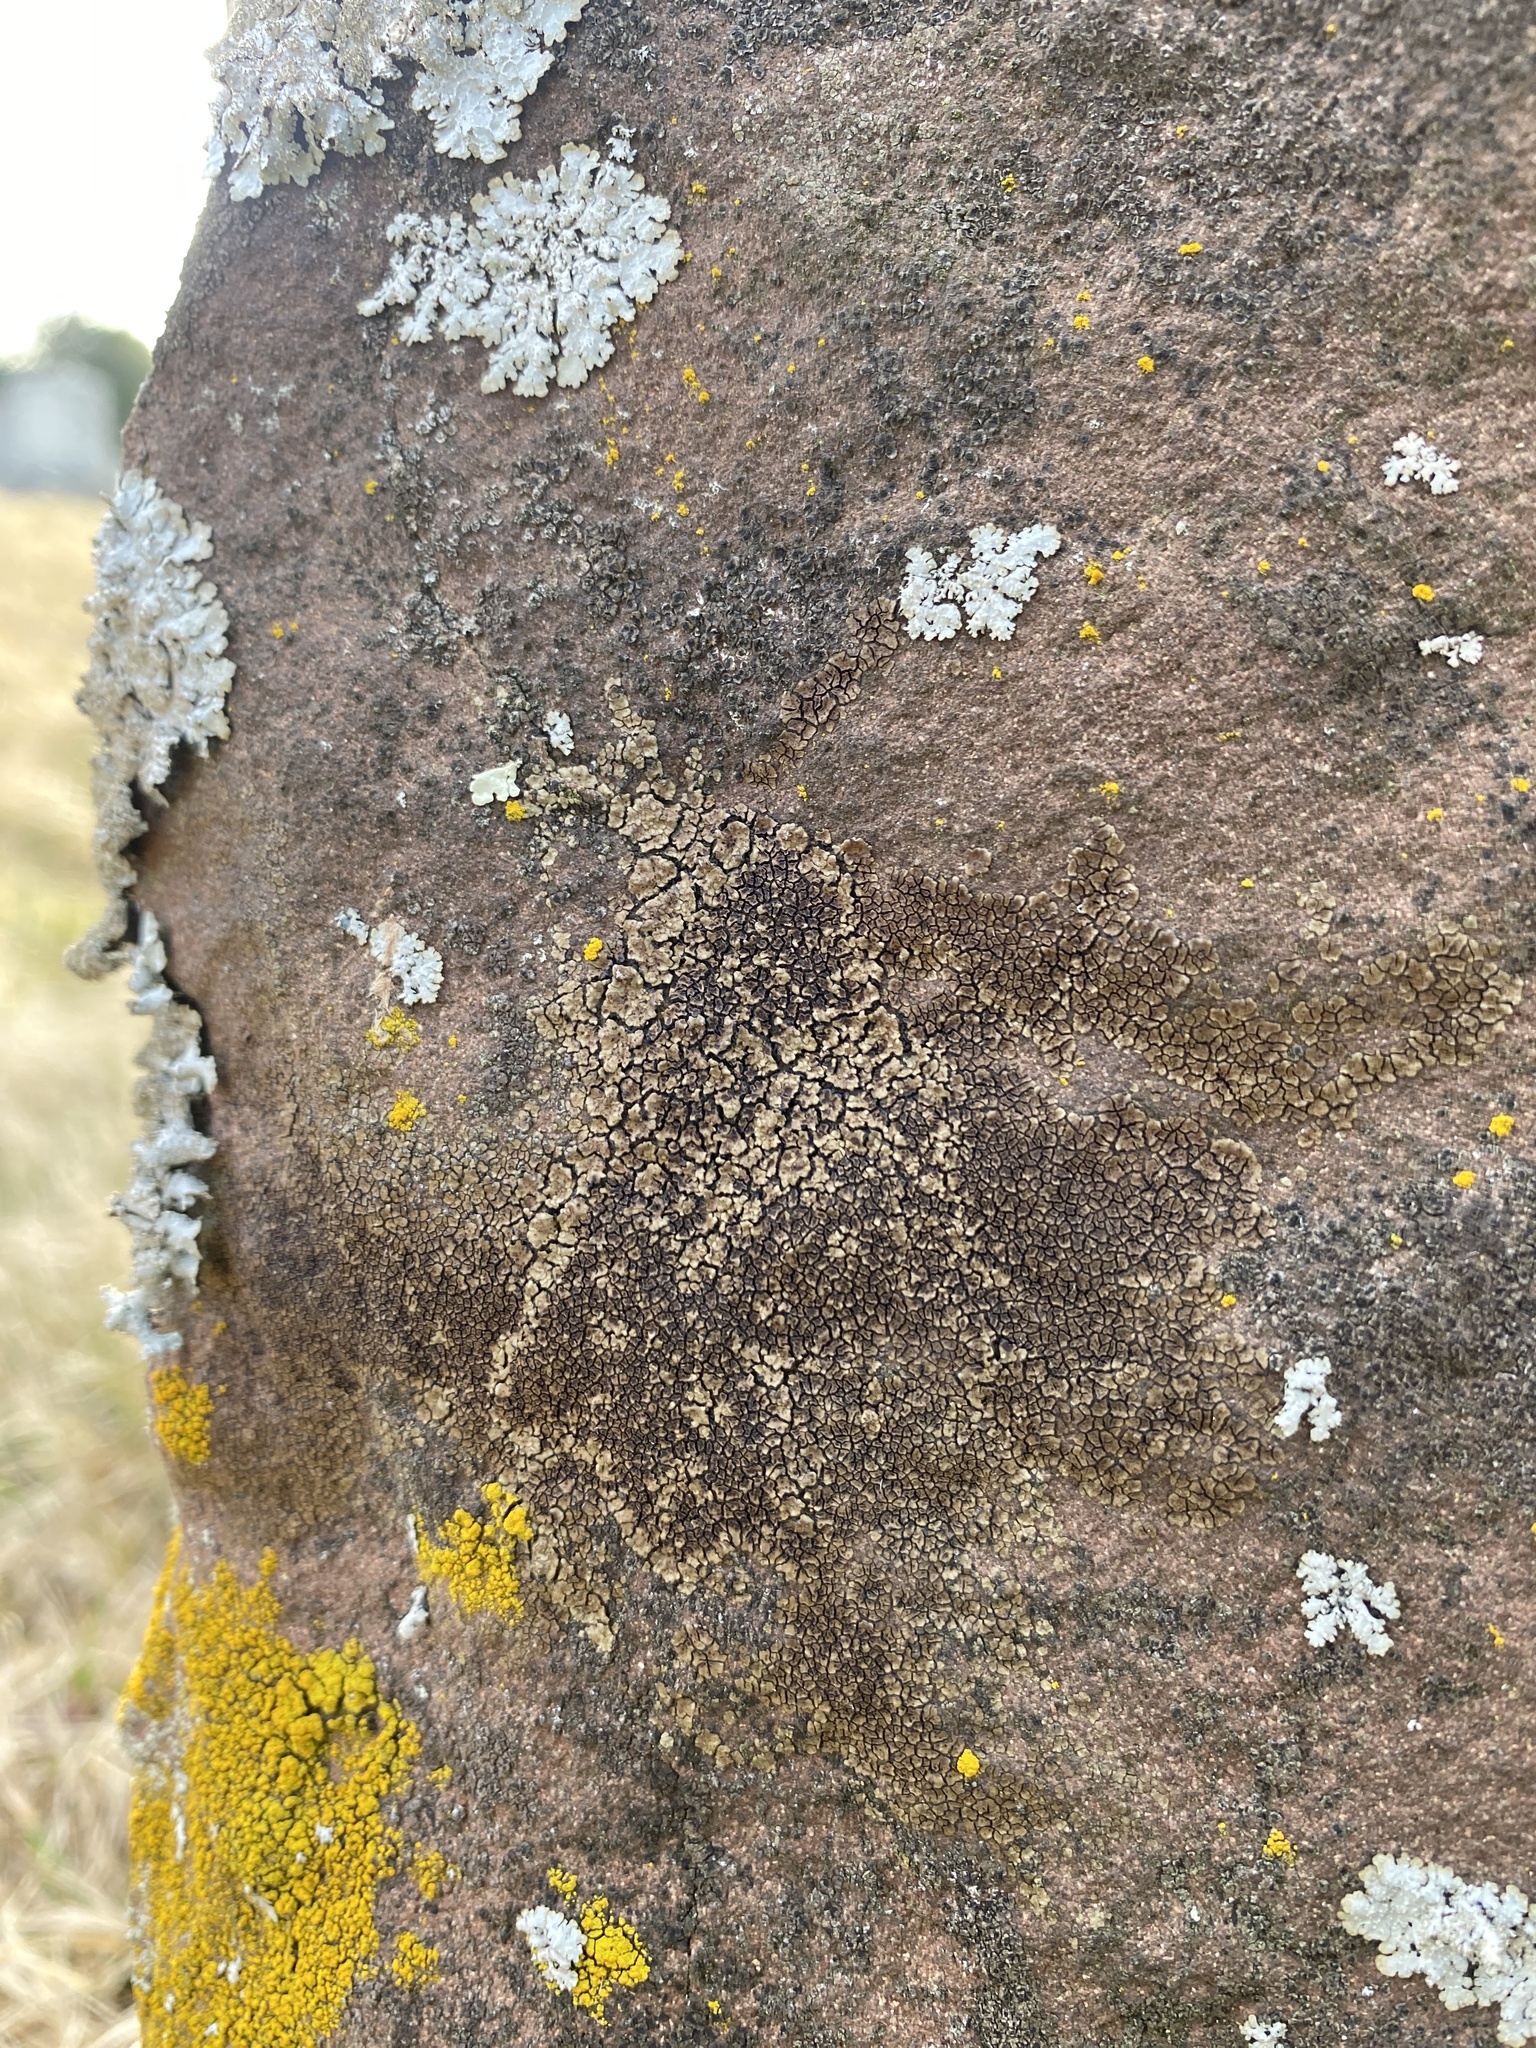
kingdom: Fungi
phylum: Ascomycota
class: Lecanoromycetes
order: Acarosporales
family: Acarosporaceae
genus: Acarospora
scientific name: Acarospora fuscata
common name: Brown cobblestone lichen
